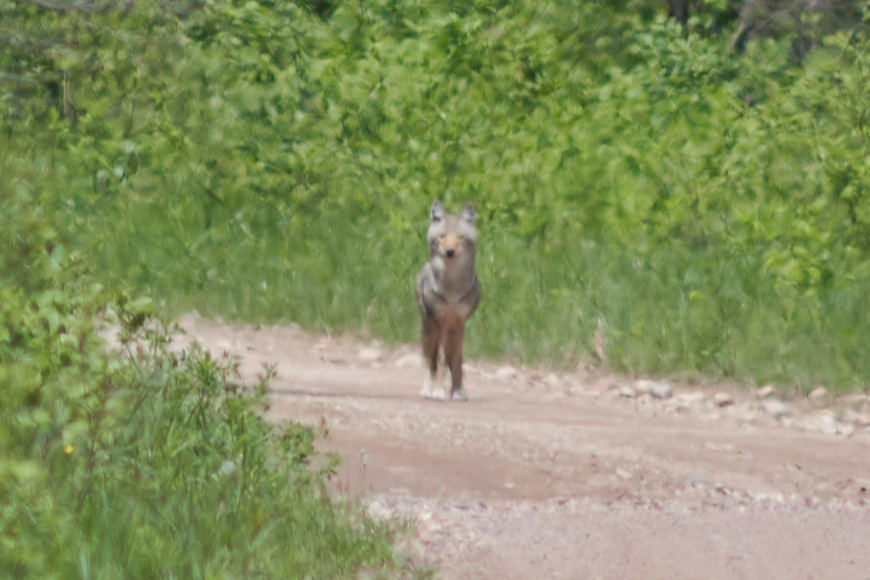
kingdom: Animalia
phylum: Chordata
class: Mammalia
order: Carnivora
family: Canidae
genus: Canis
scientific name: Canis latrans
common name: Coyote
